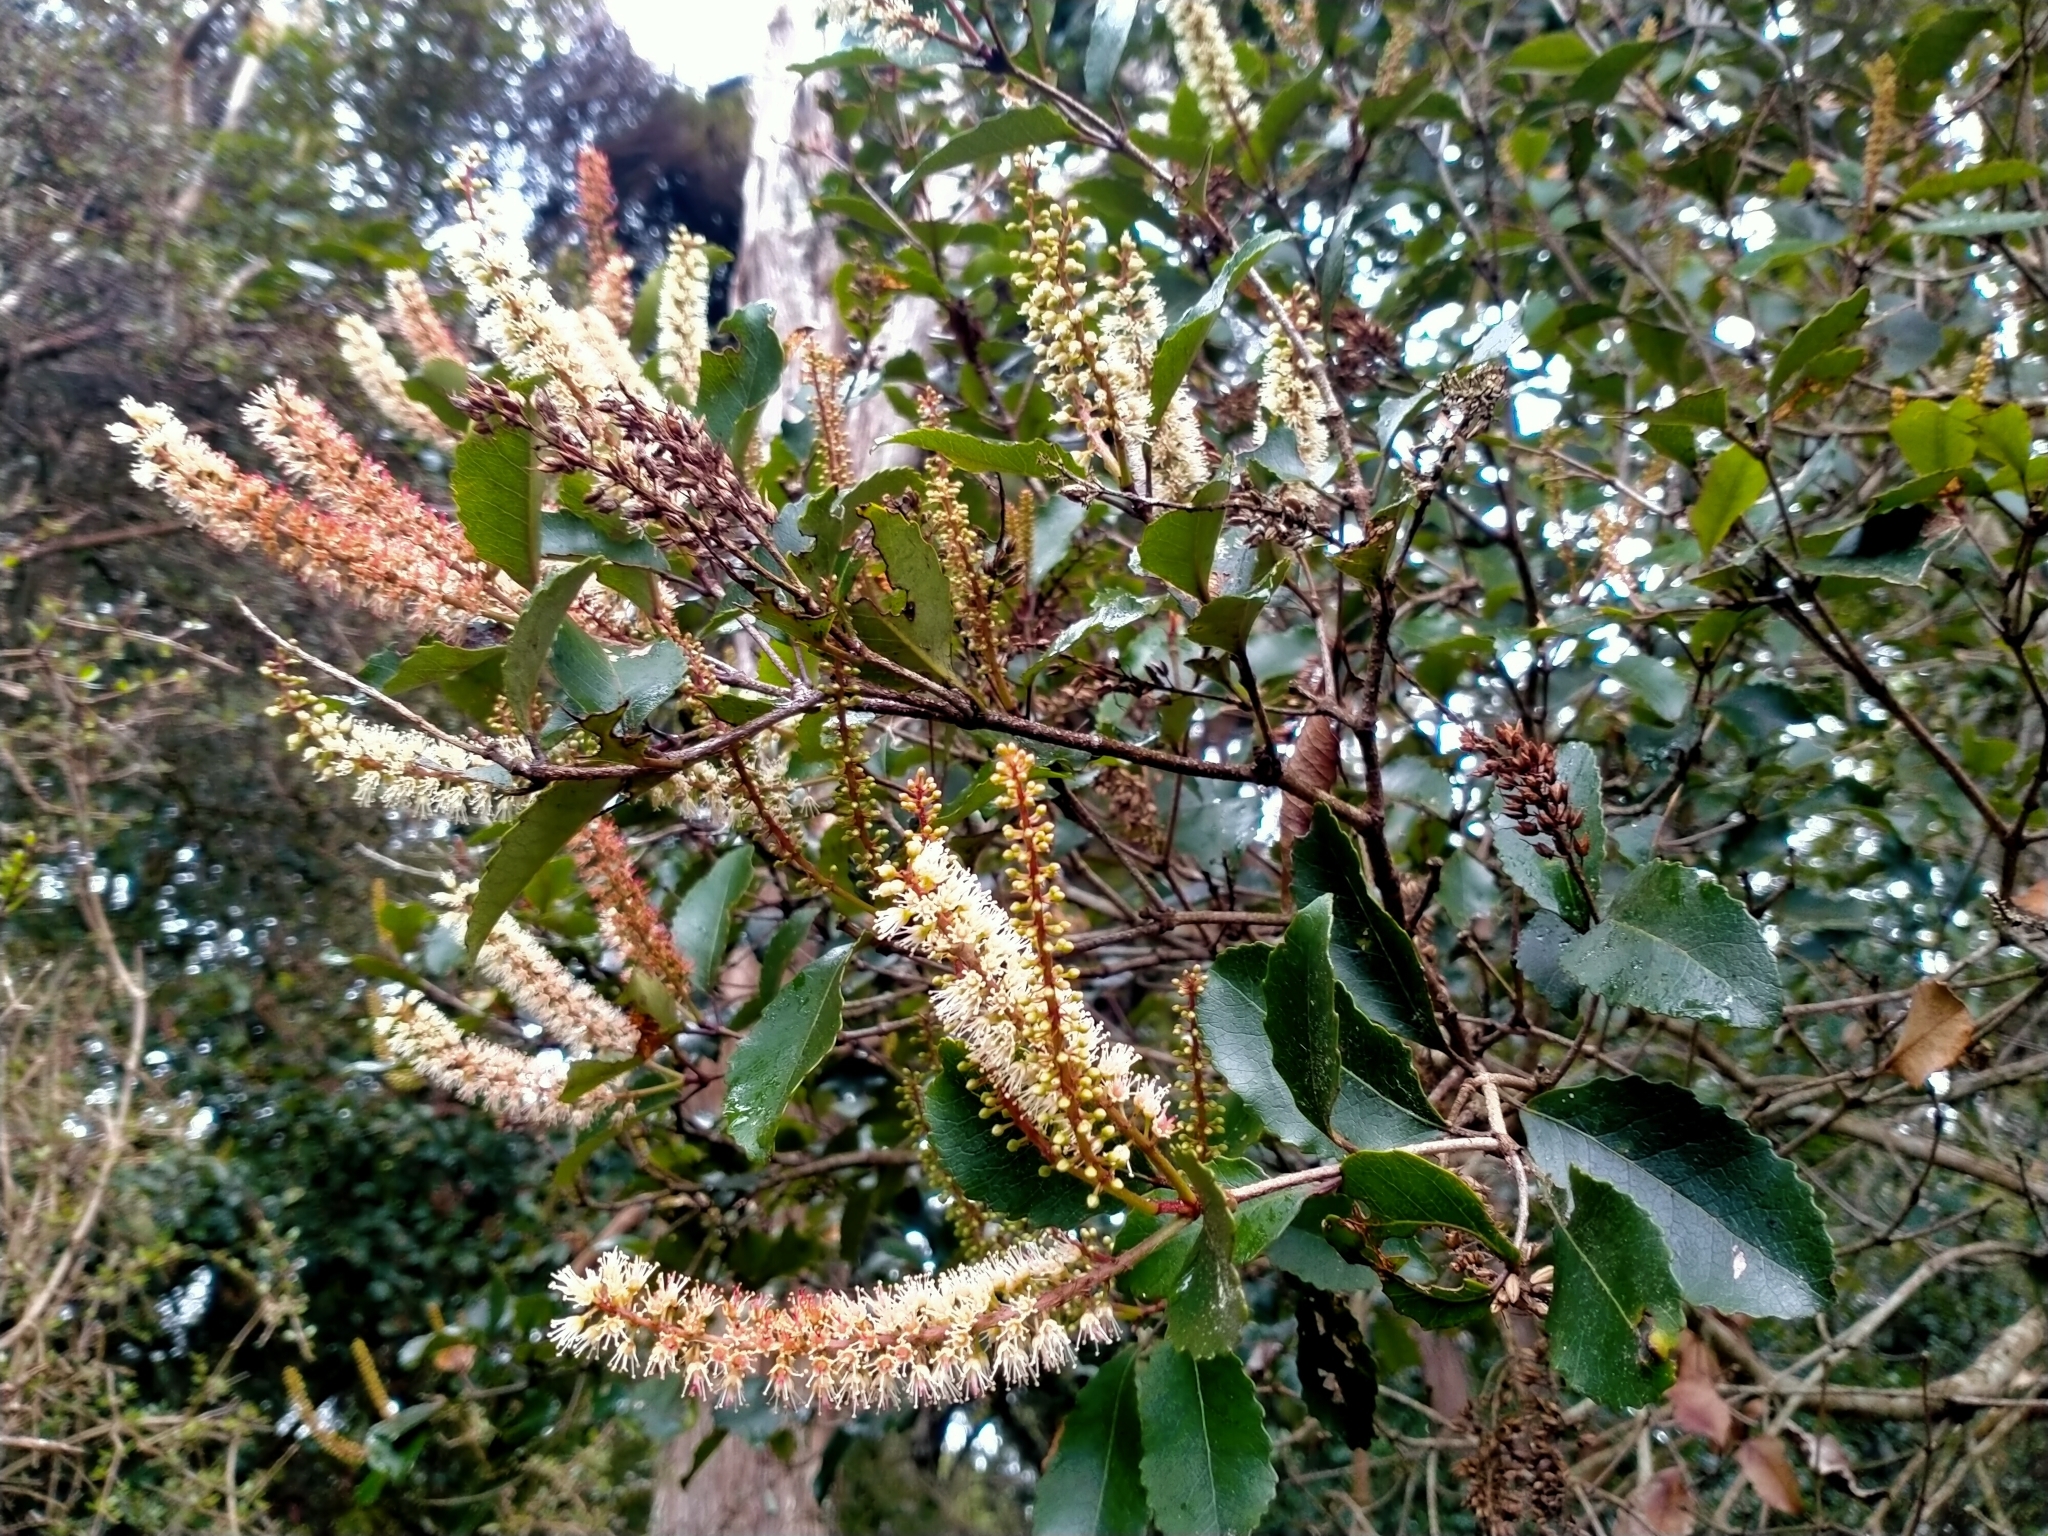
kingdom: Plantae
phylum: Tracheophyta
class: Magnoliopsida
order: Oxalidales
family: Cunoniaceae
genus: Pterophylla
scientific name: Pterophylla racemosa
